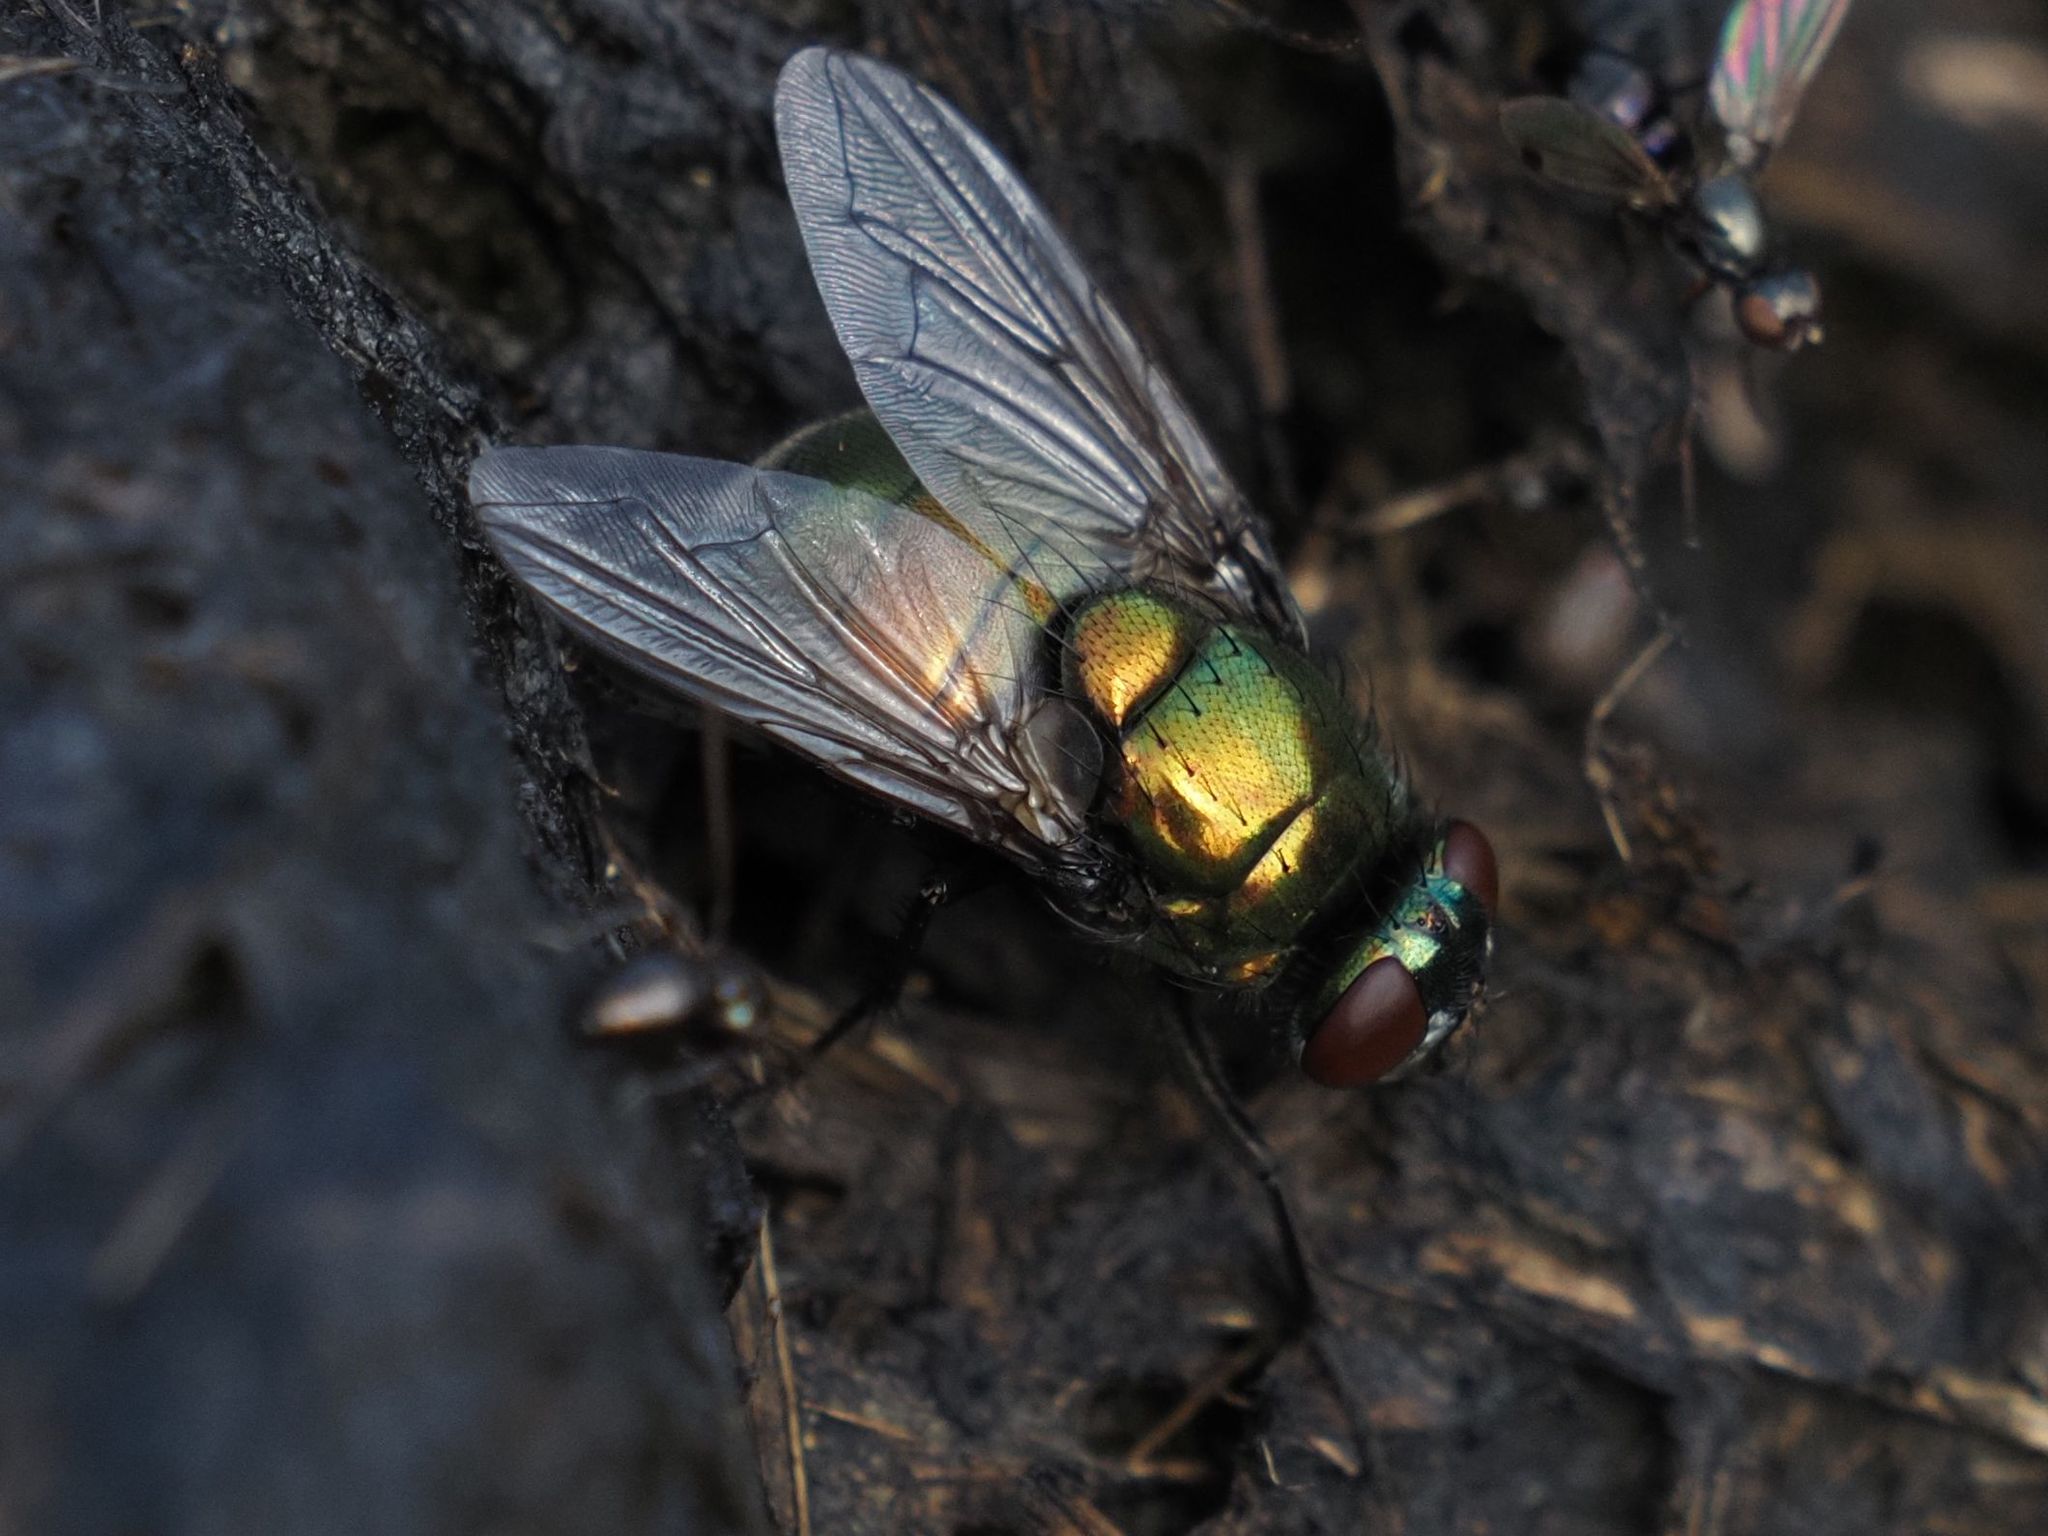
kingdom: Animalia
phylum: Arthropoda
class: Insecta
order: Diptera
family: Muscidae
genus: Neomyia
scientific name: Neomyia viridescens
